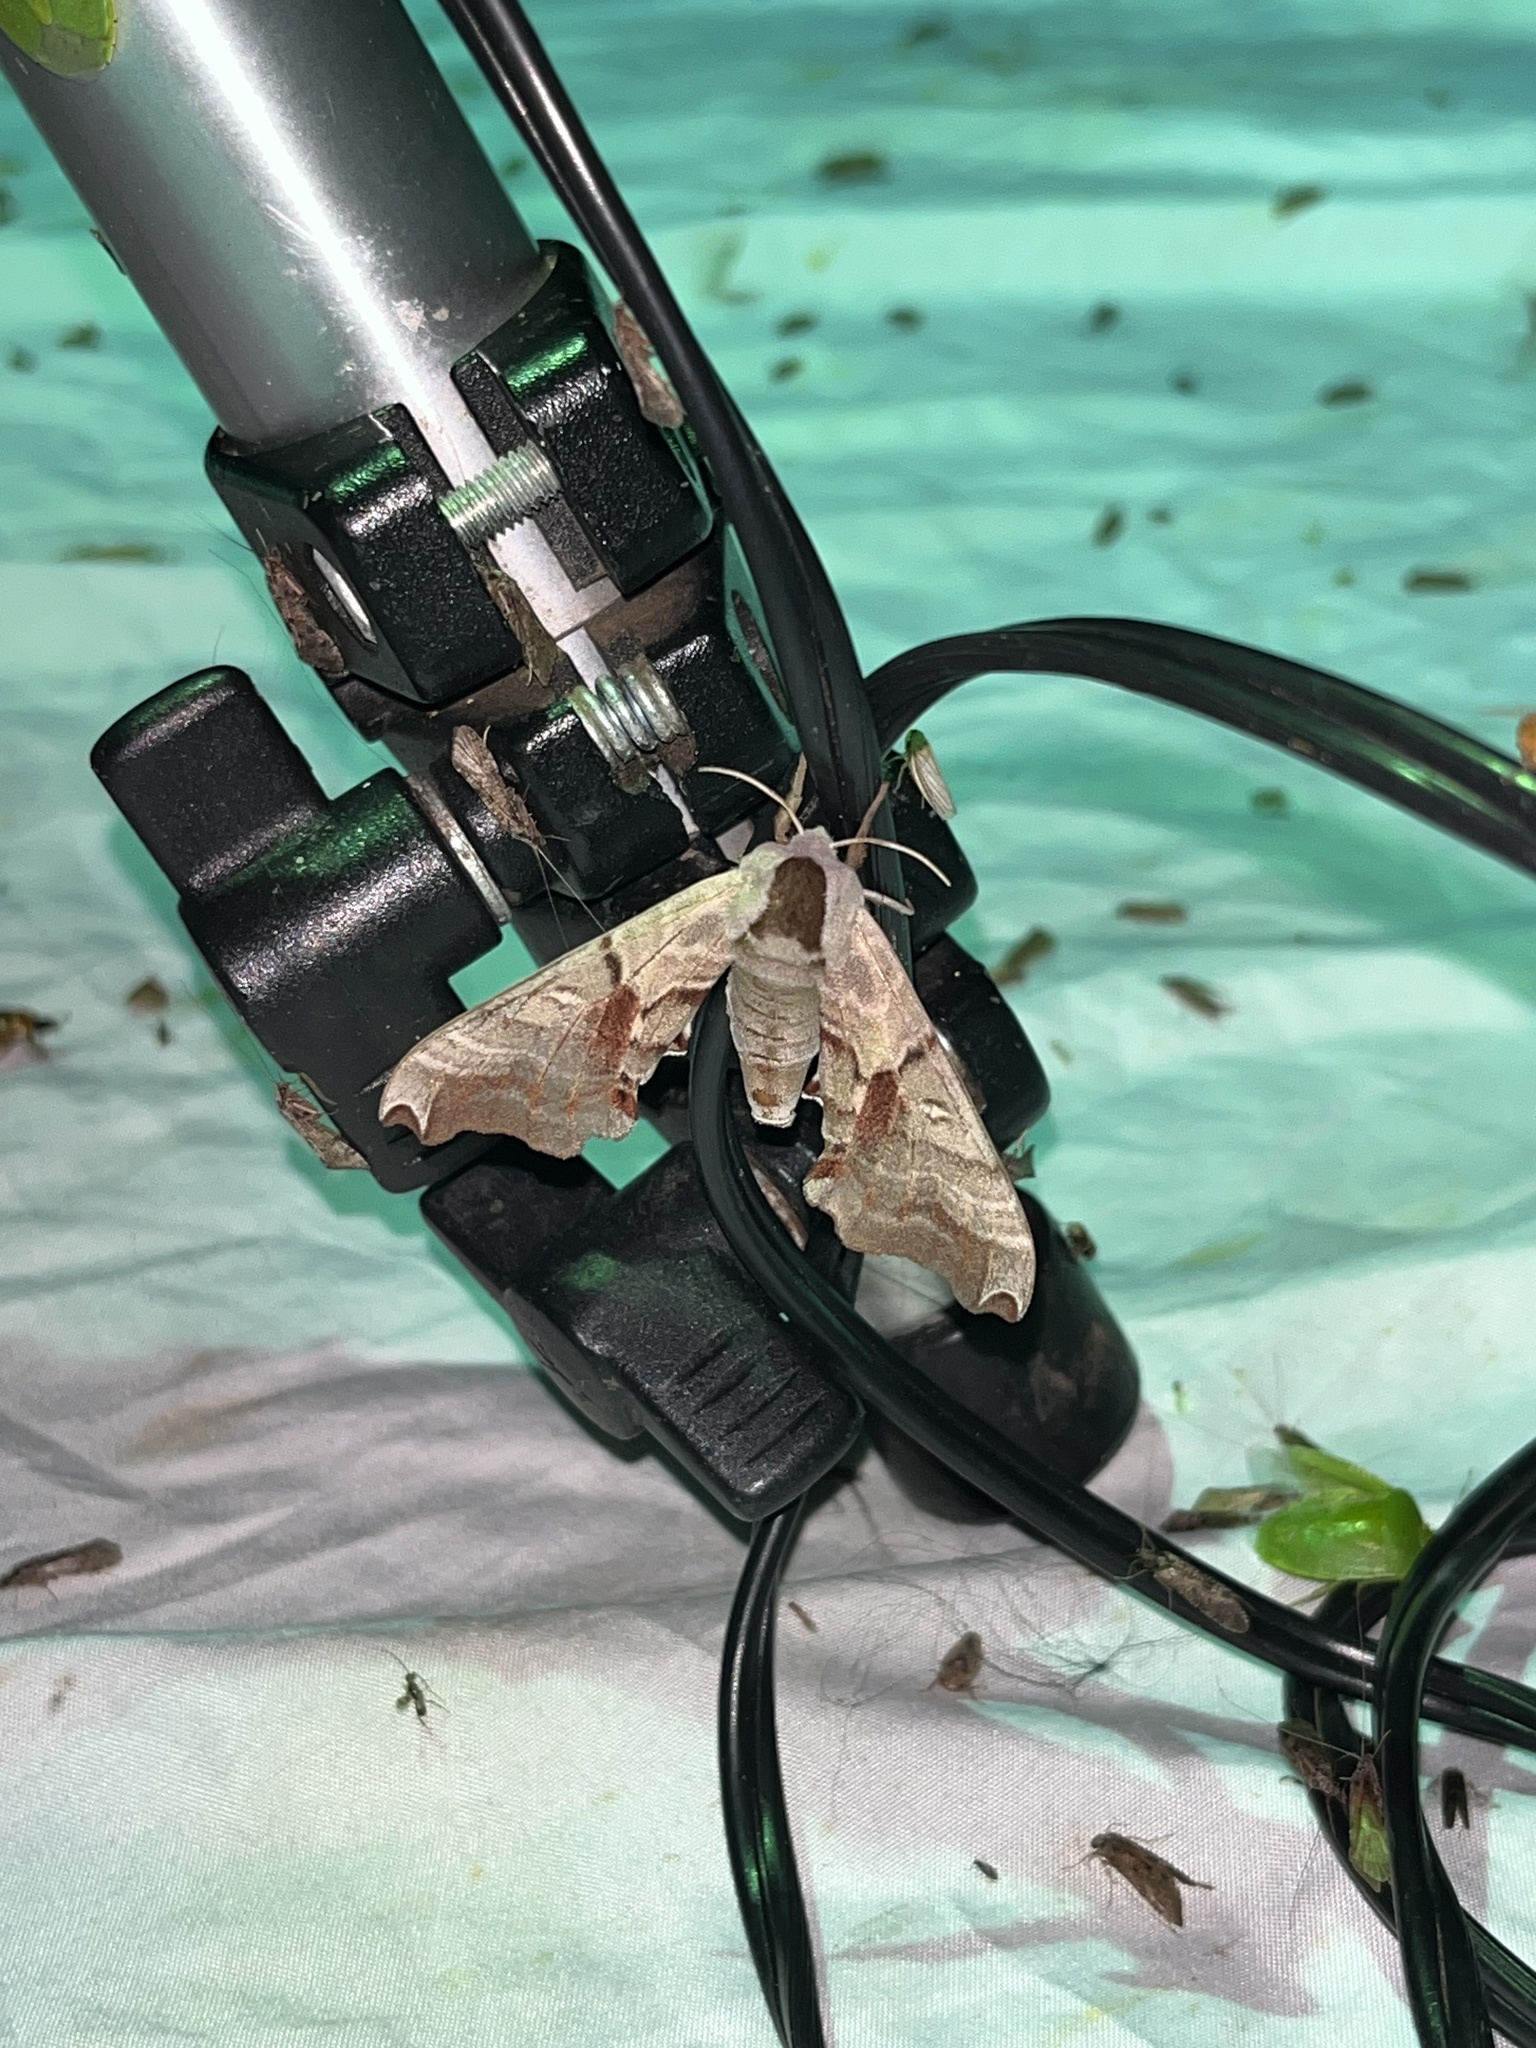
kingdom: Animalia
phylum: Arthropoda
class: Insecta
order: Lepidoptera
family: Sphingidae
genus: Smerinthus
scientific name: Smerinthus jamaicensis
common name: Twin spotted sphinx
